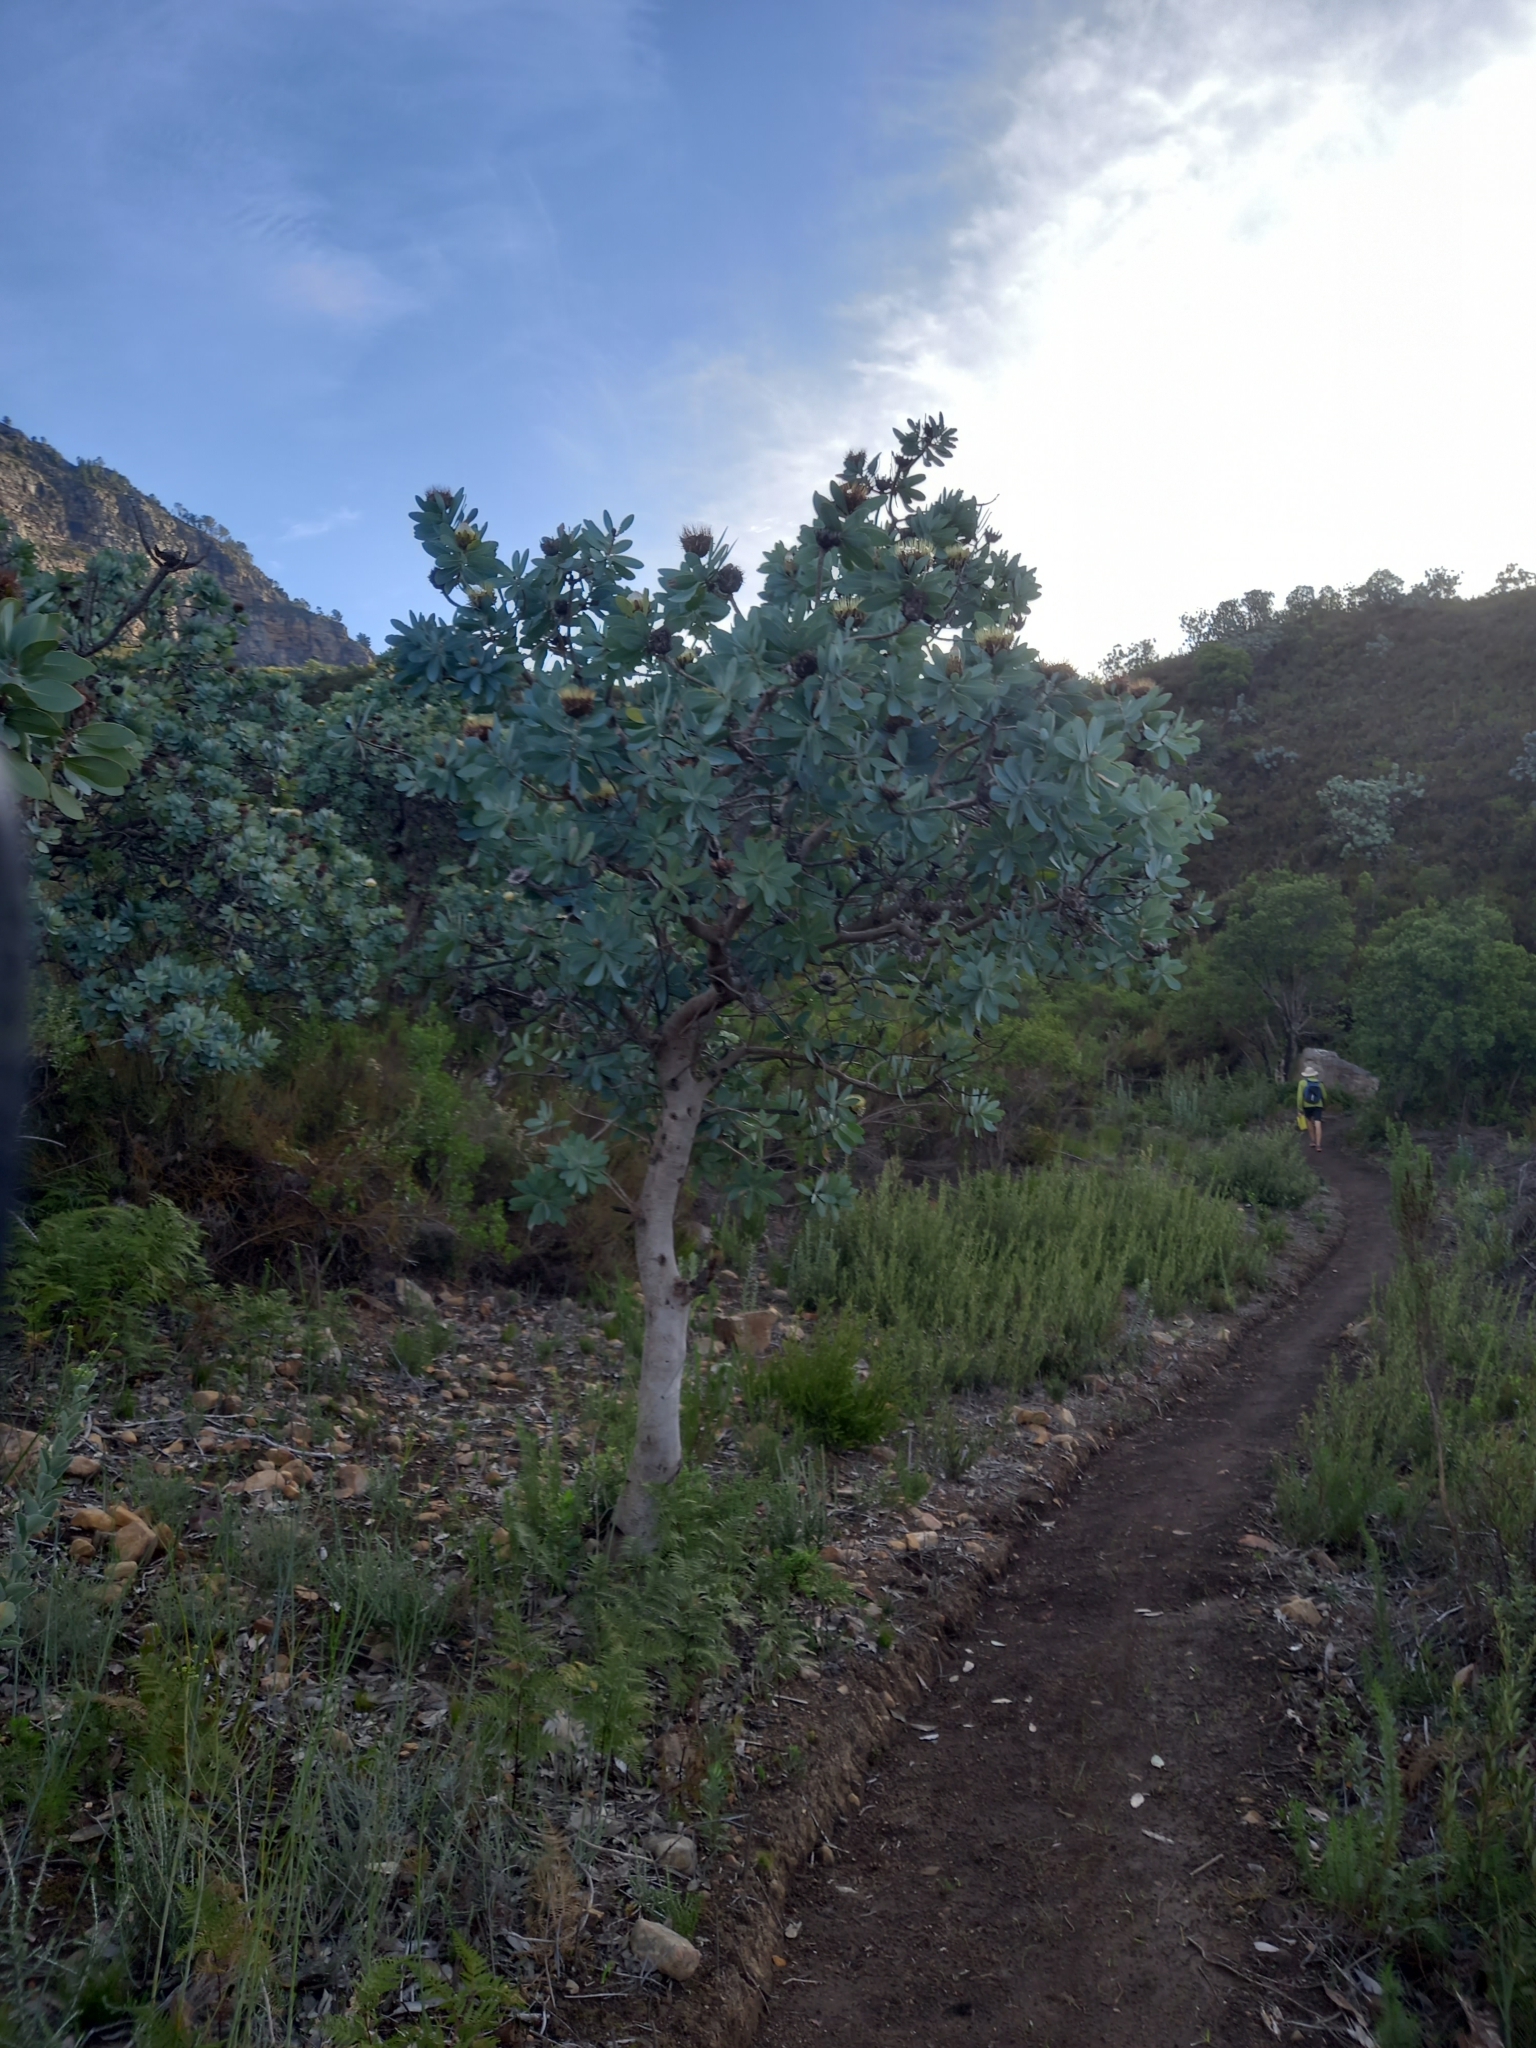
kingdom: Plantae
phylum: Tracheophyta
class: Magnoliopsida
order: Proteales
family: Proteaceae
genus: Protea
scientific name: Protea nitida
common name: Tree protea
